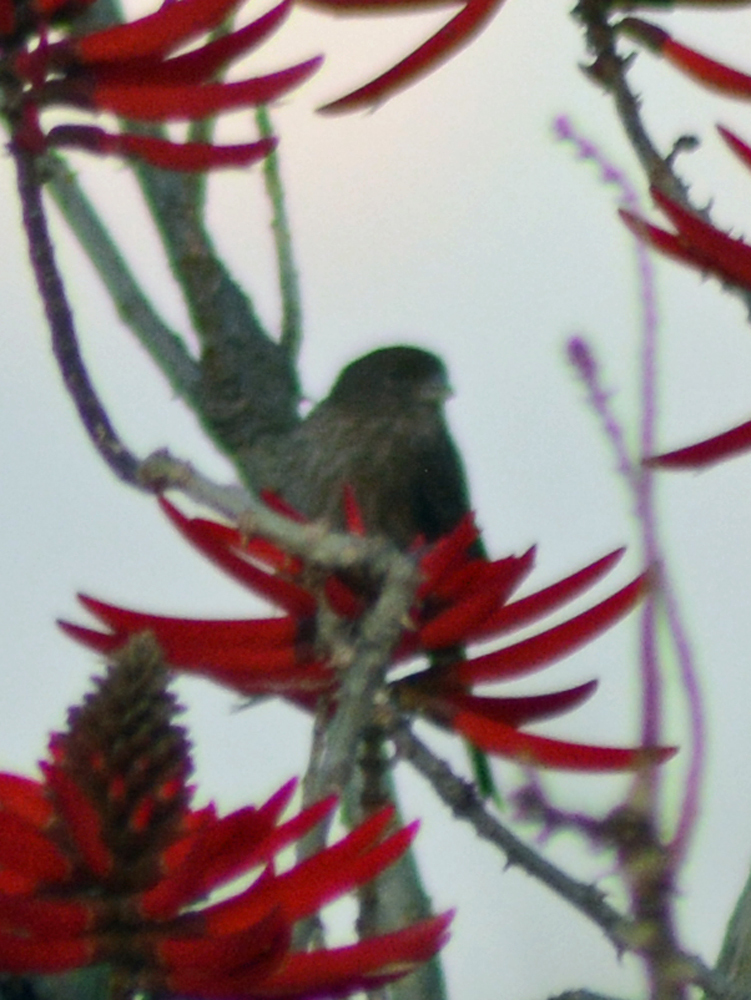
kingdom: Animalia
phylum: Chordata
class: Aves
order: Passeriformes
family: Fringillidae
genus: Haemorhous
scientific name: Haemorhous mexicanus
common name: House finch
